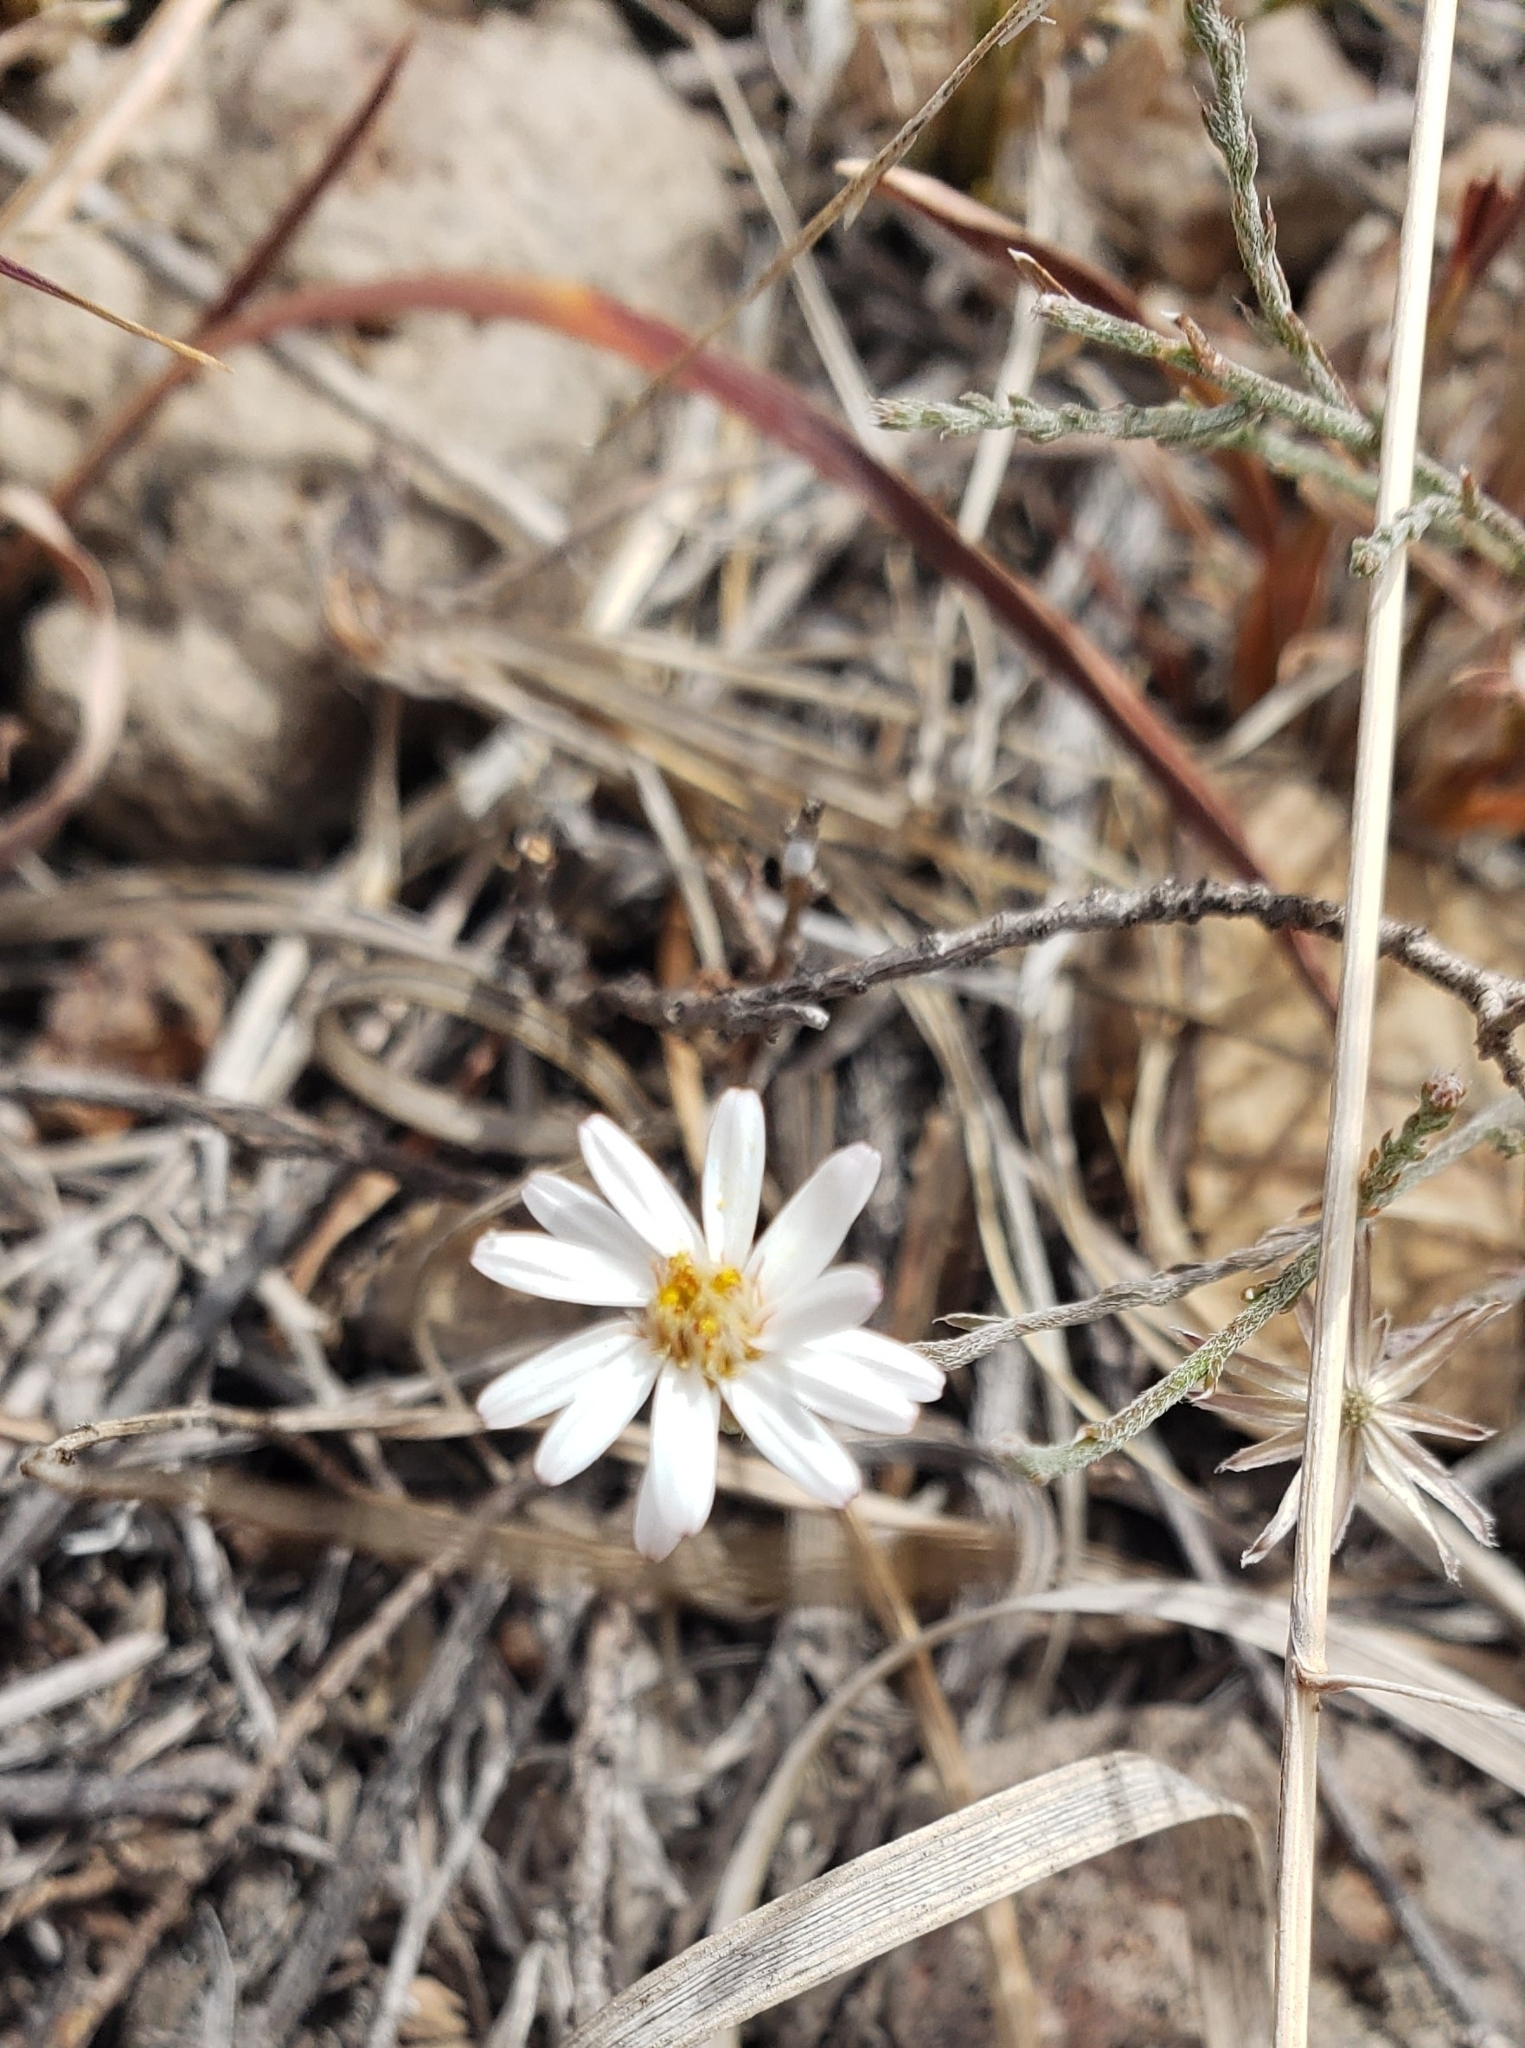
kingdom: Plantae
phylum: Tracheophyta
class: Magnoliopsida
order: Asterales
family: Asteraceae
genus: Chaetopappa
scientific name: Chaetopappa ericoides
